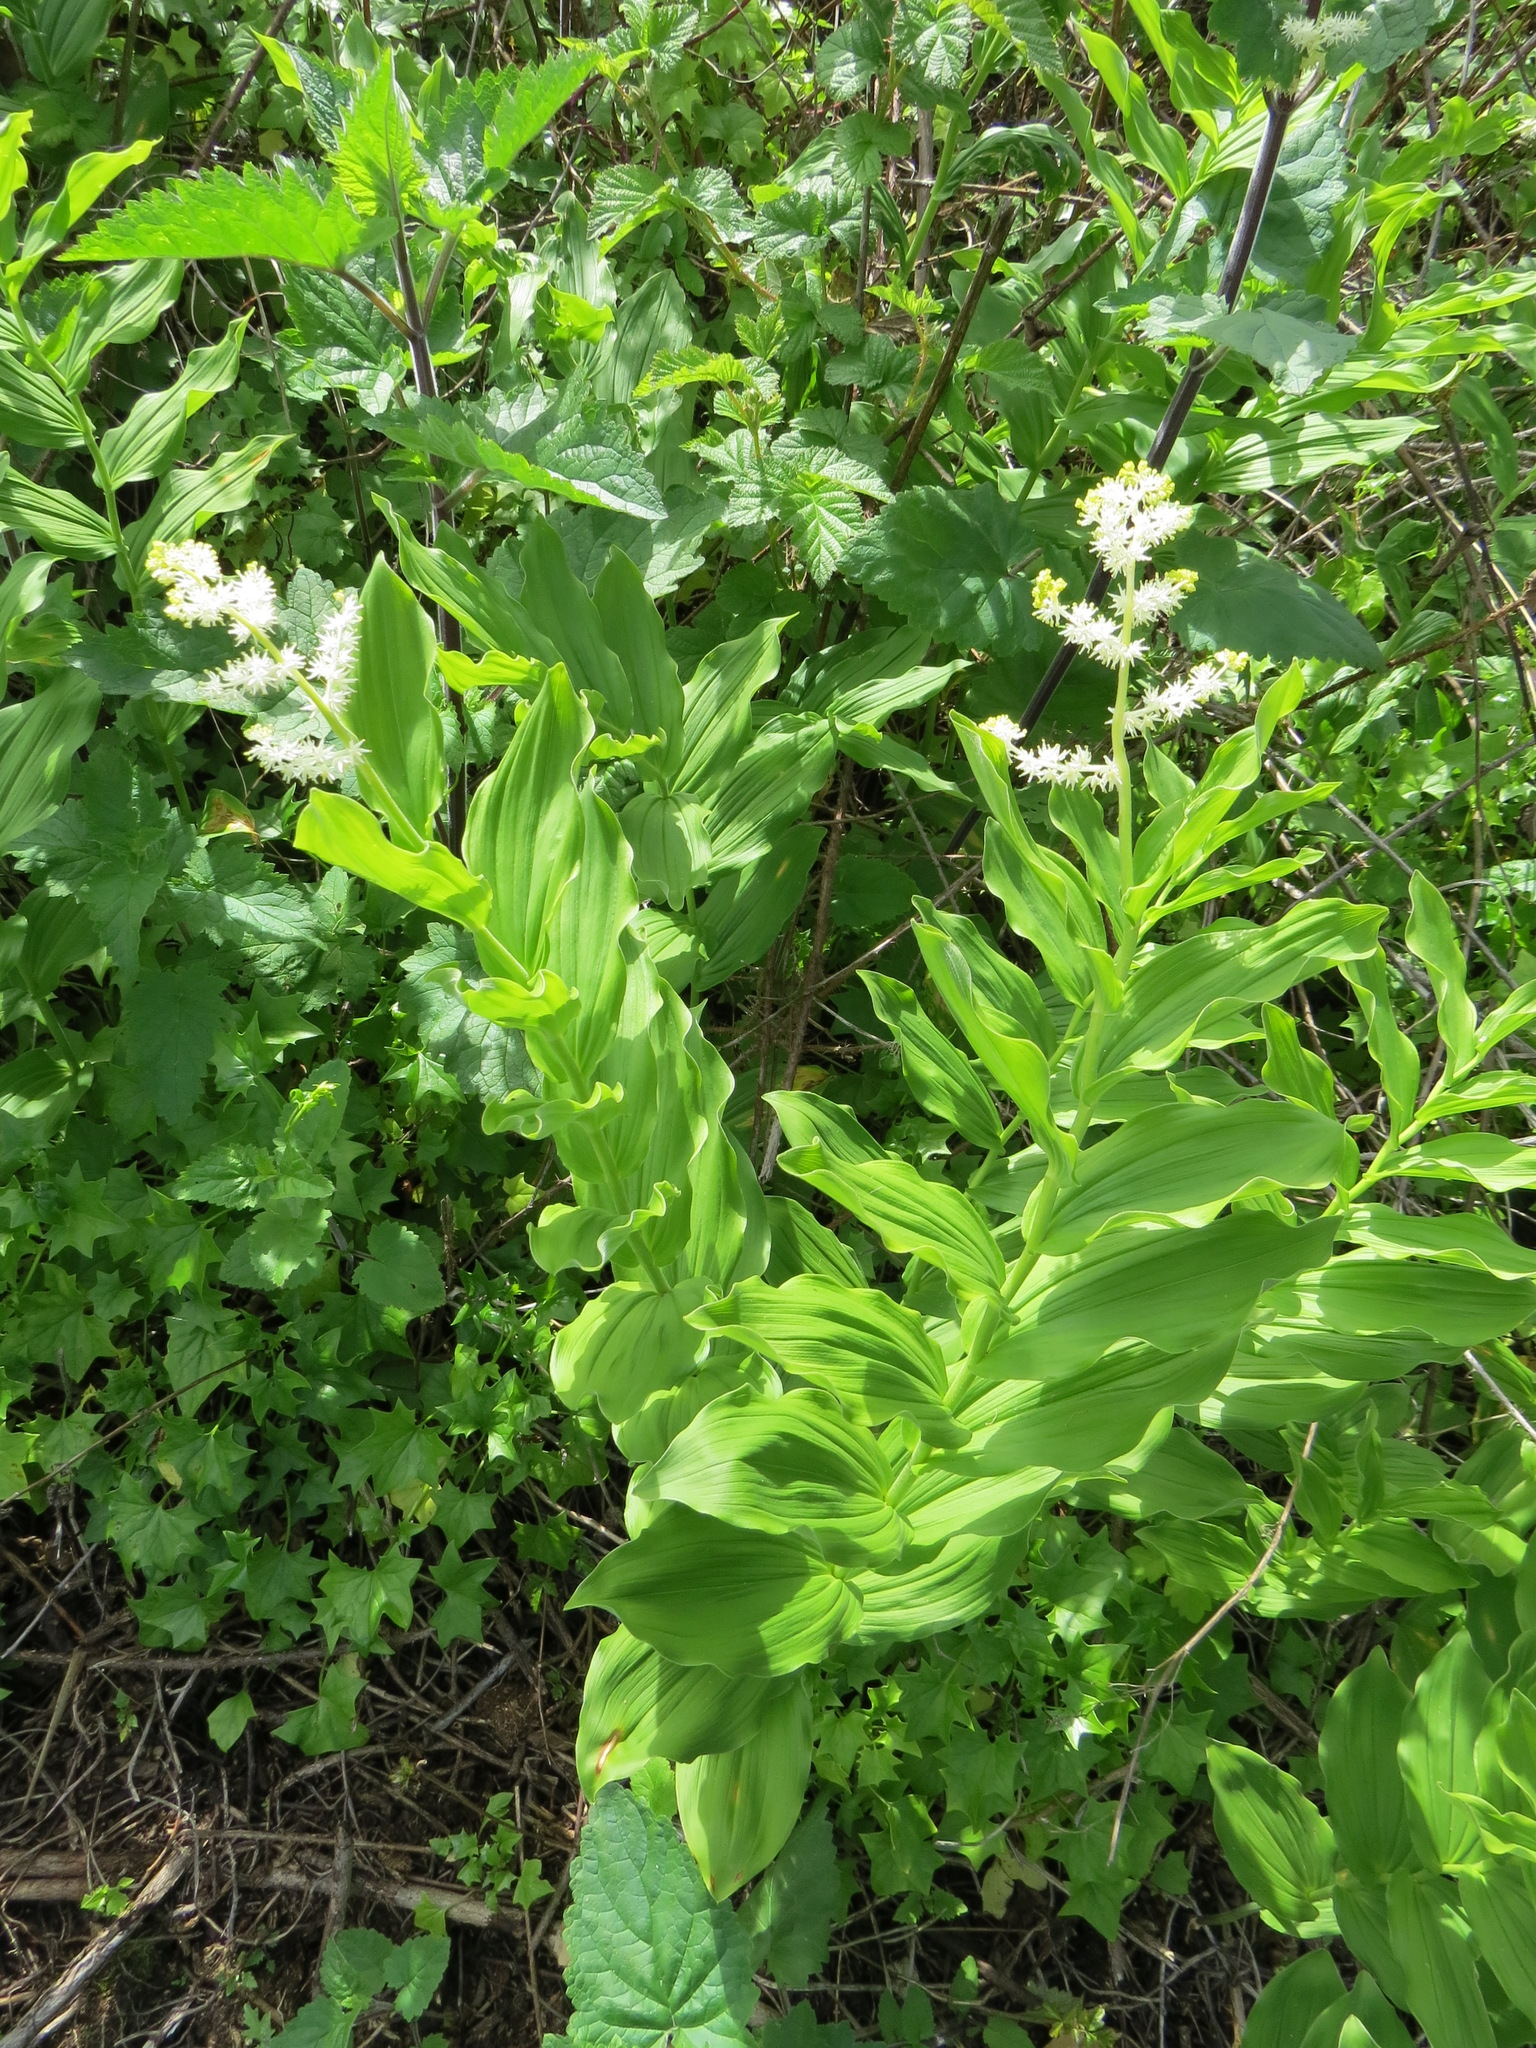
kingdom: Plantae
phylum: Tracheophyta
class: Liliopsida
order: Asparagales
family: Asparagaceae
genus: Maianthemum
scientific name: Maianthemum racemosum
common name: False spikenard
